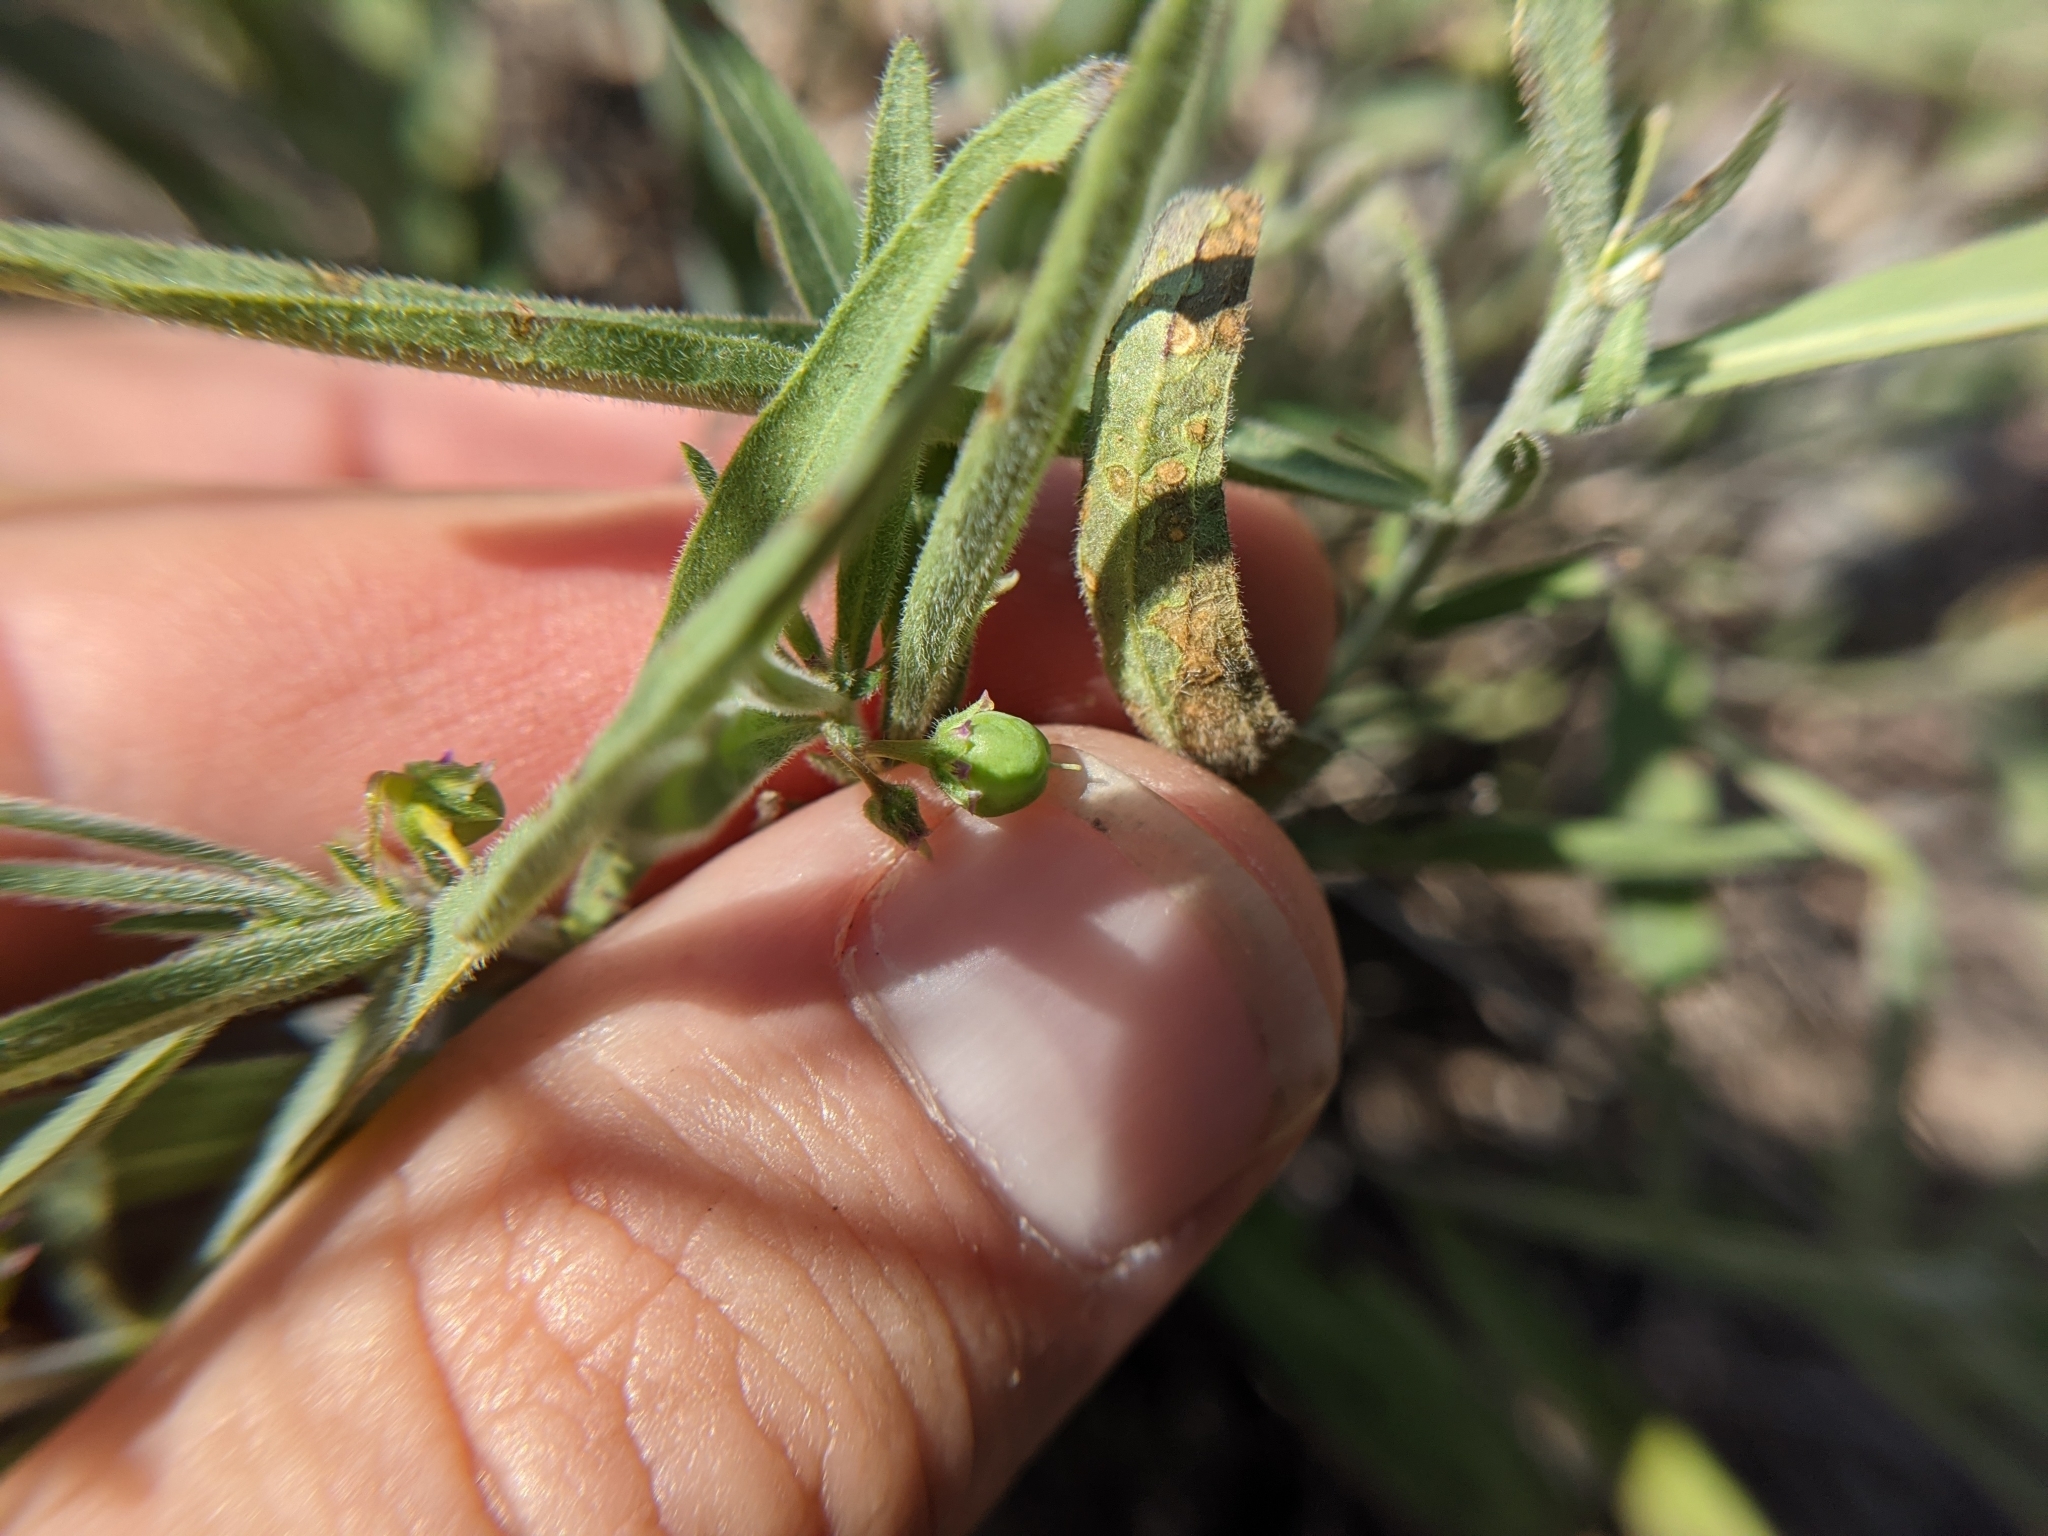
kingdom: Plantae
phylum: Tracheophyta
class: Magnoliopsida
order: Malpighiales
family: Violaceae
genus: Pombalia
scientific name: Pombalia verticillata
